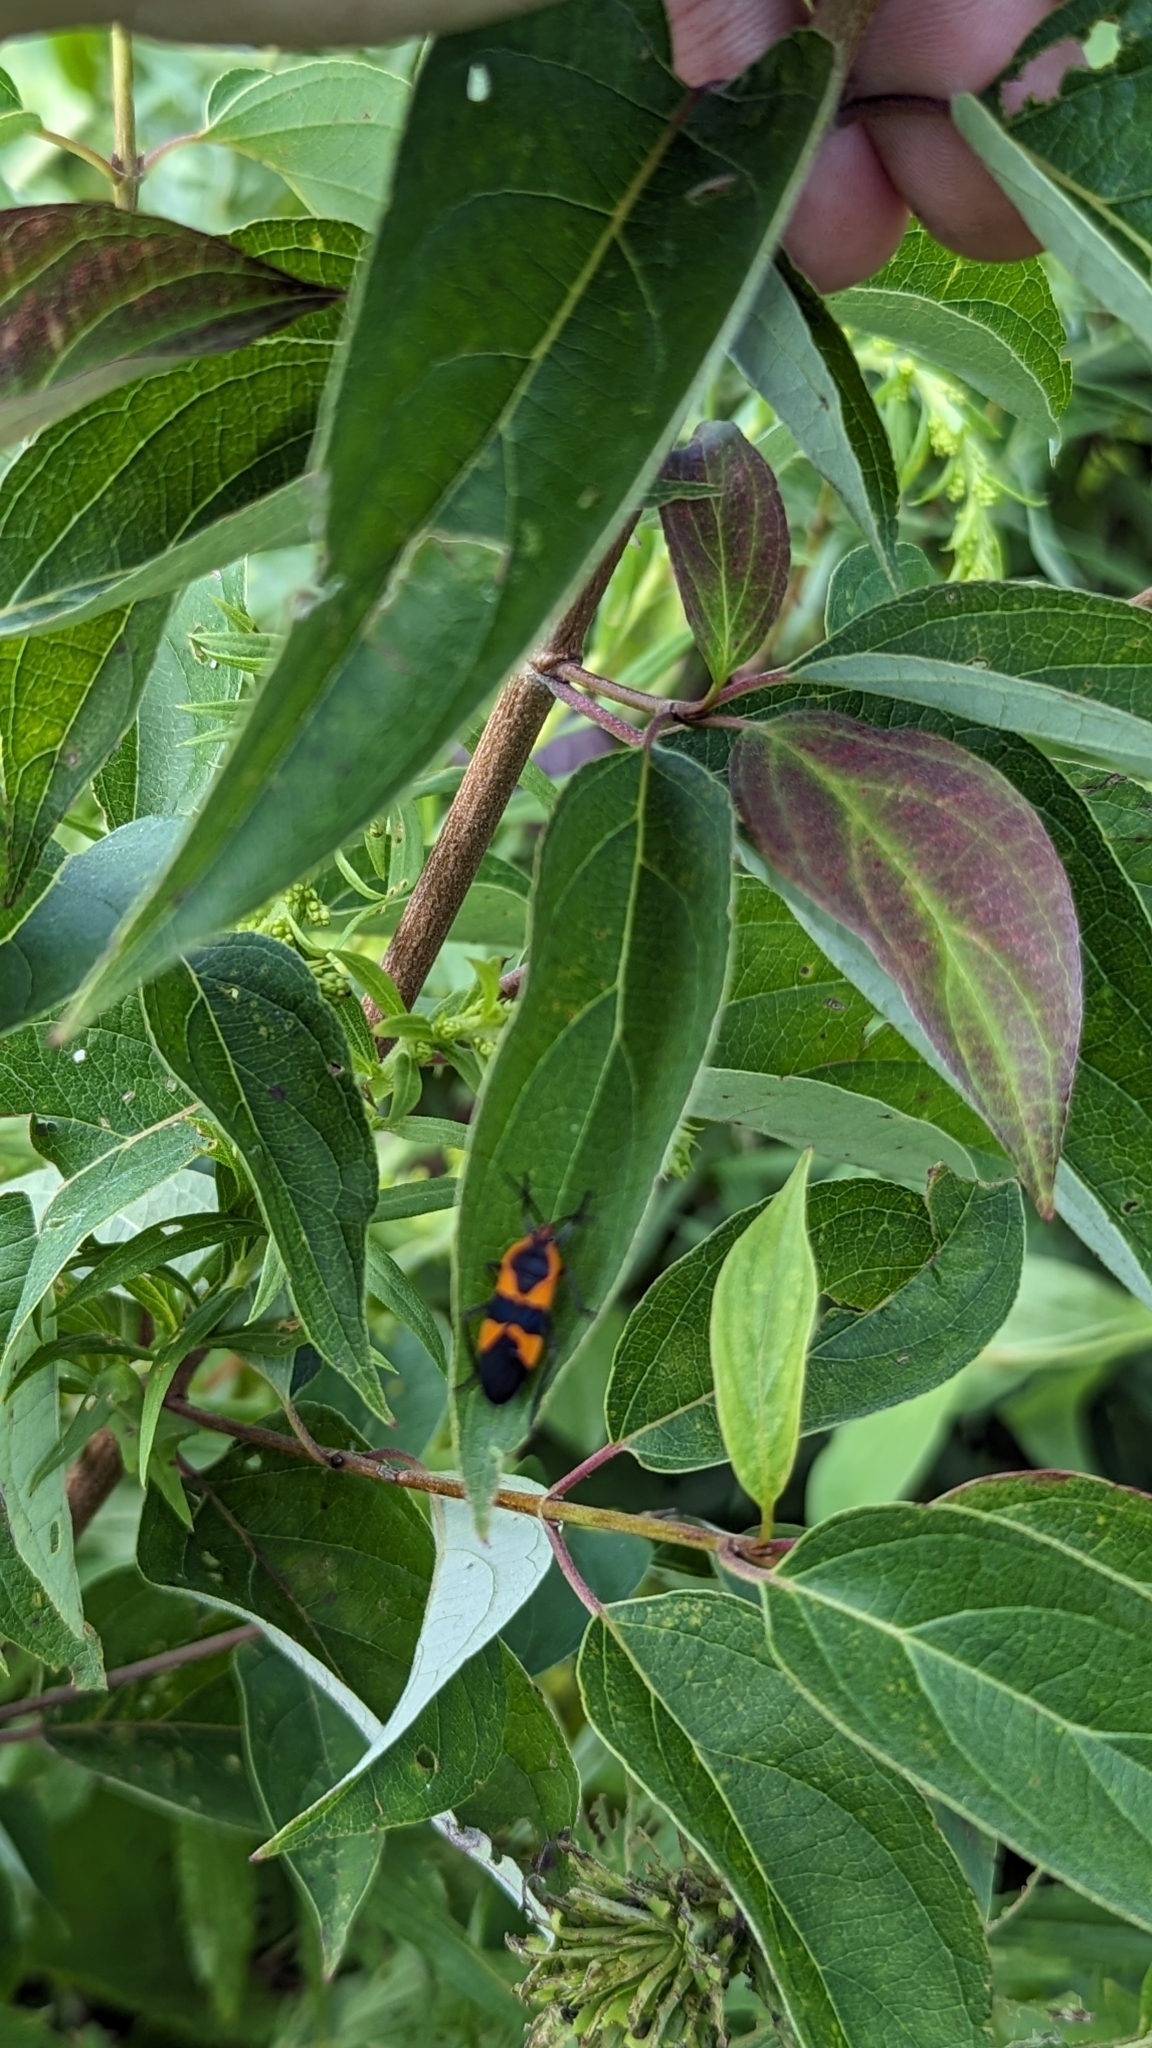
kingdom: Animalia
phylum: Arthropoda
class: Insecta
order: Hemiptera
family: Lygaeidae
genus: Oncopeltus
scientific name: Oncopeltus fasciatus
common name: Large milkweed bug
